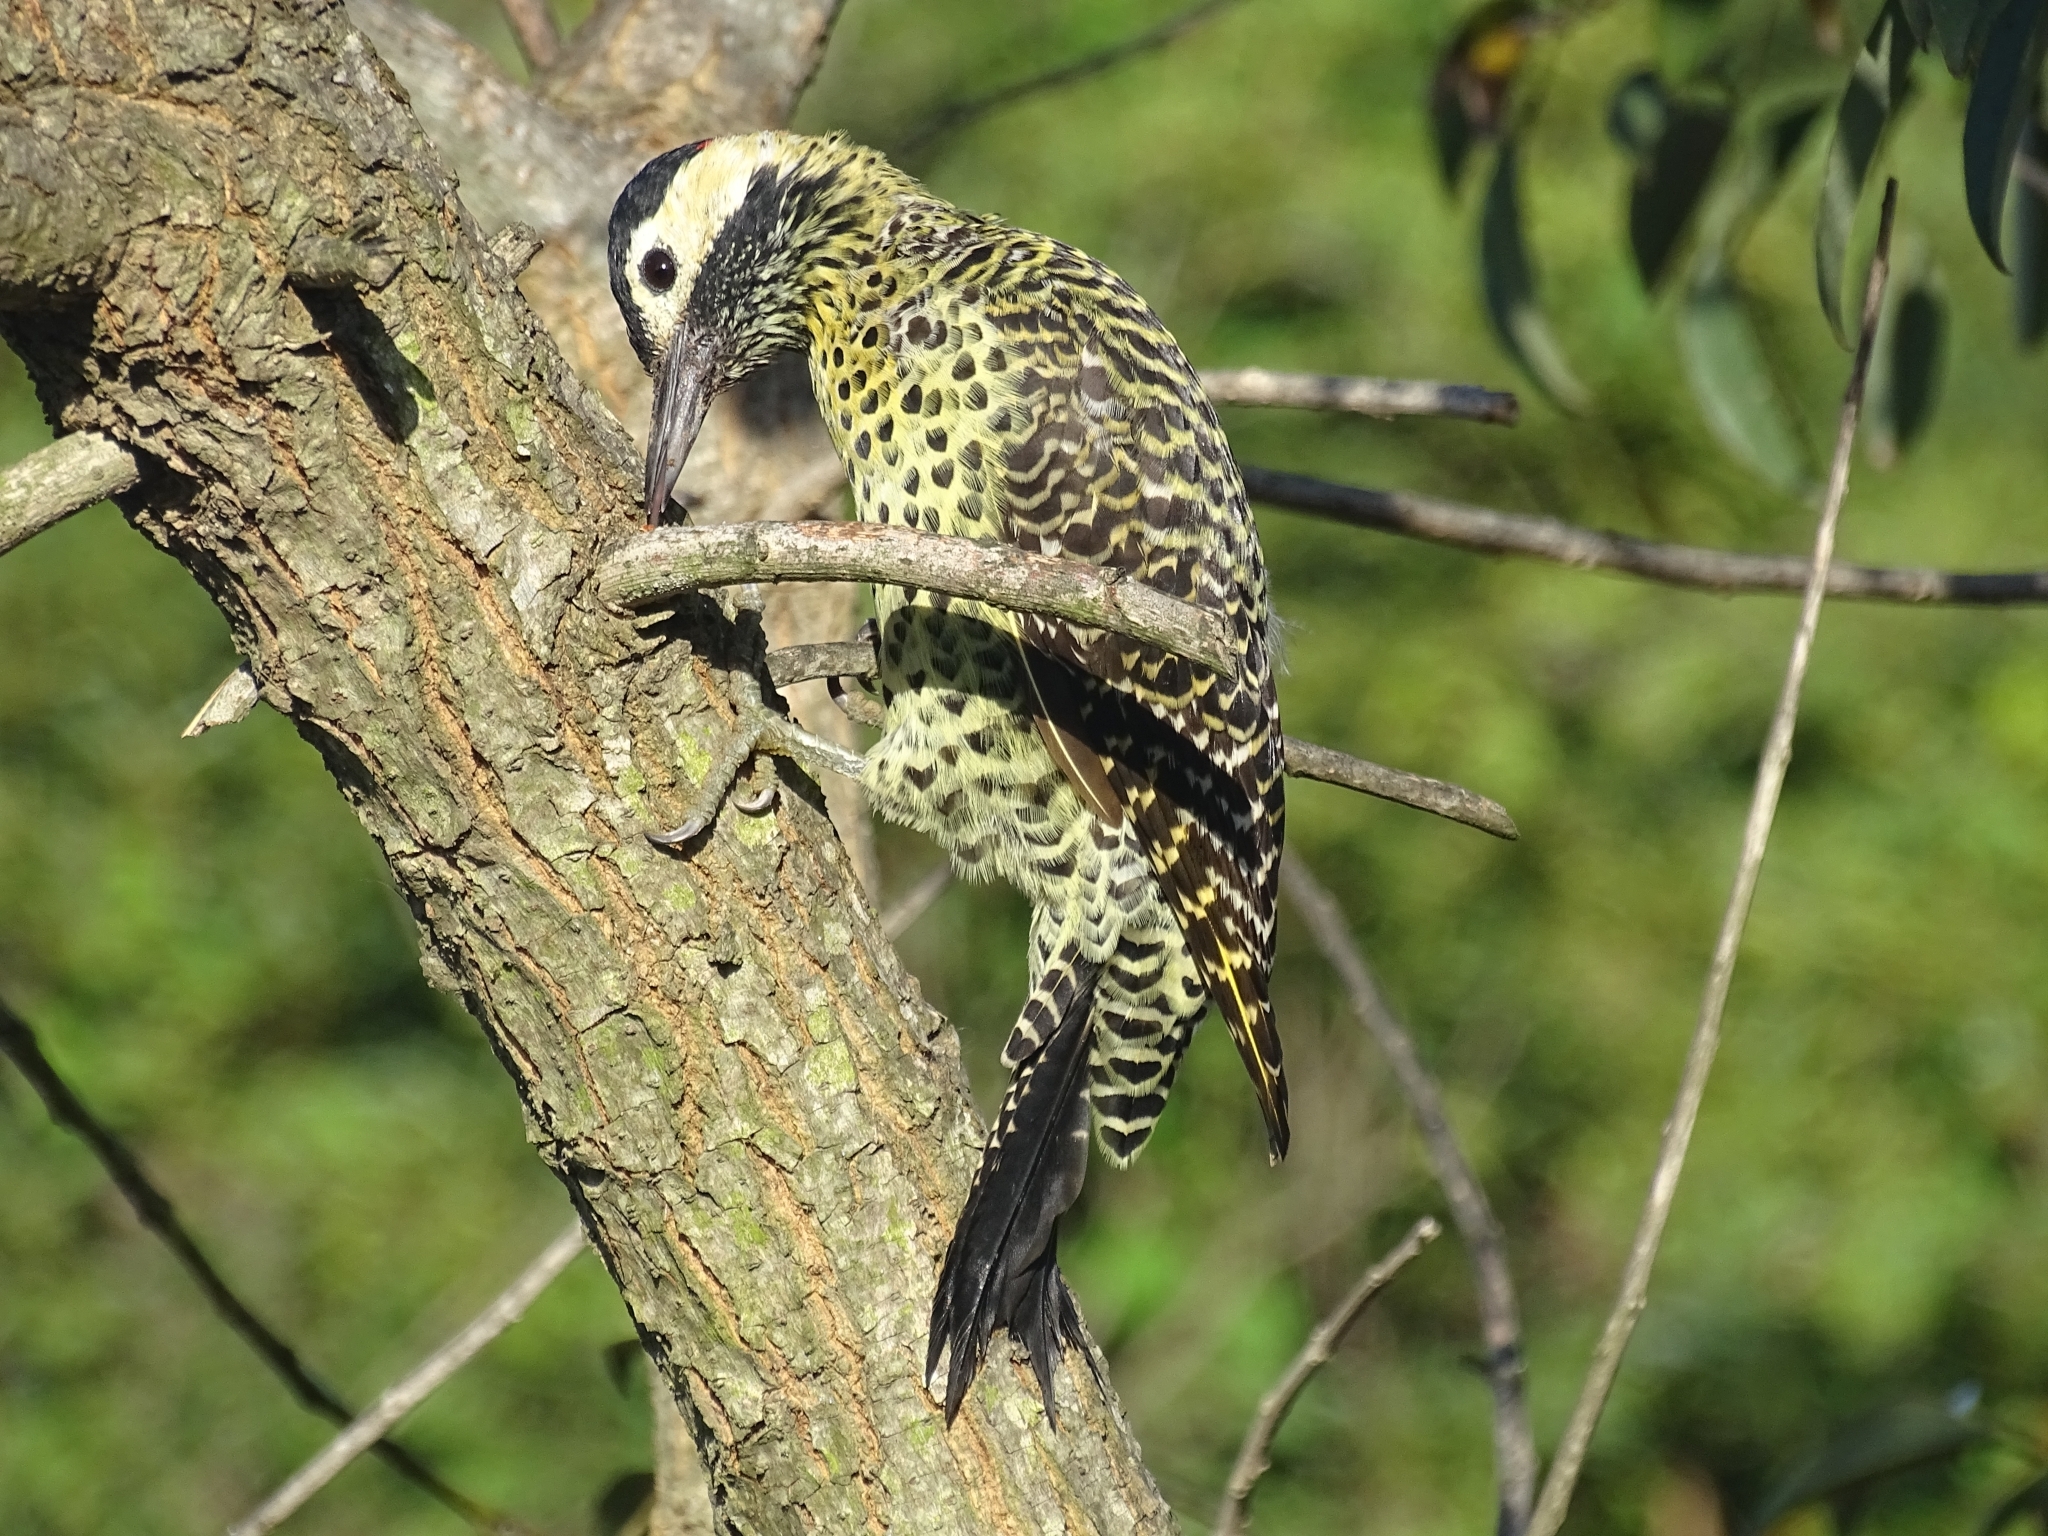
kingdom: Animalia
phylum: Chordata
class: Aves
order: Piciformes
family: Picidae
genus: Colaptes
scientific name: Colaptes melanochloros
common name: Green-barred woodpecker
